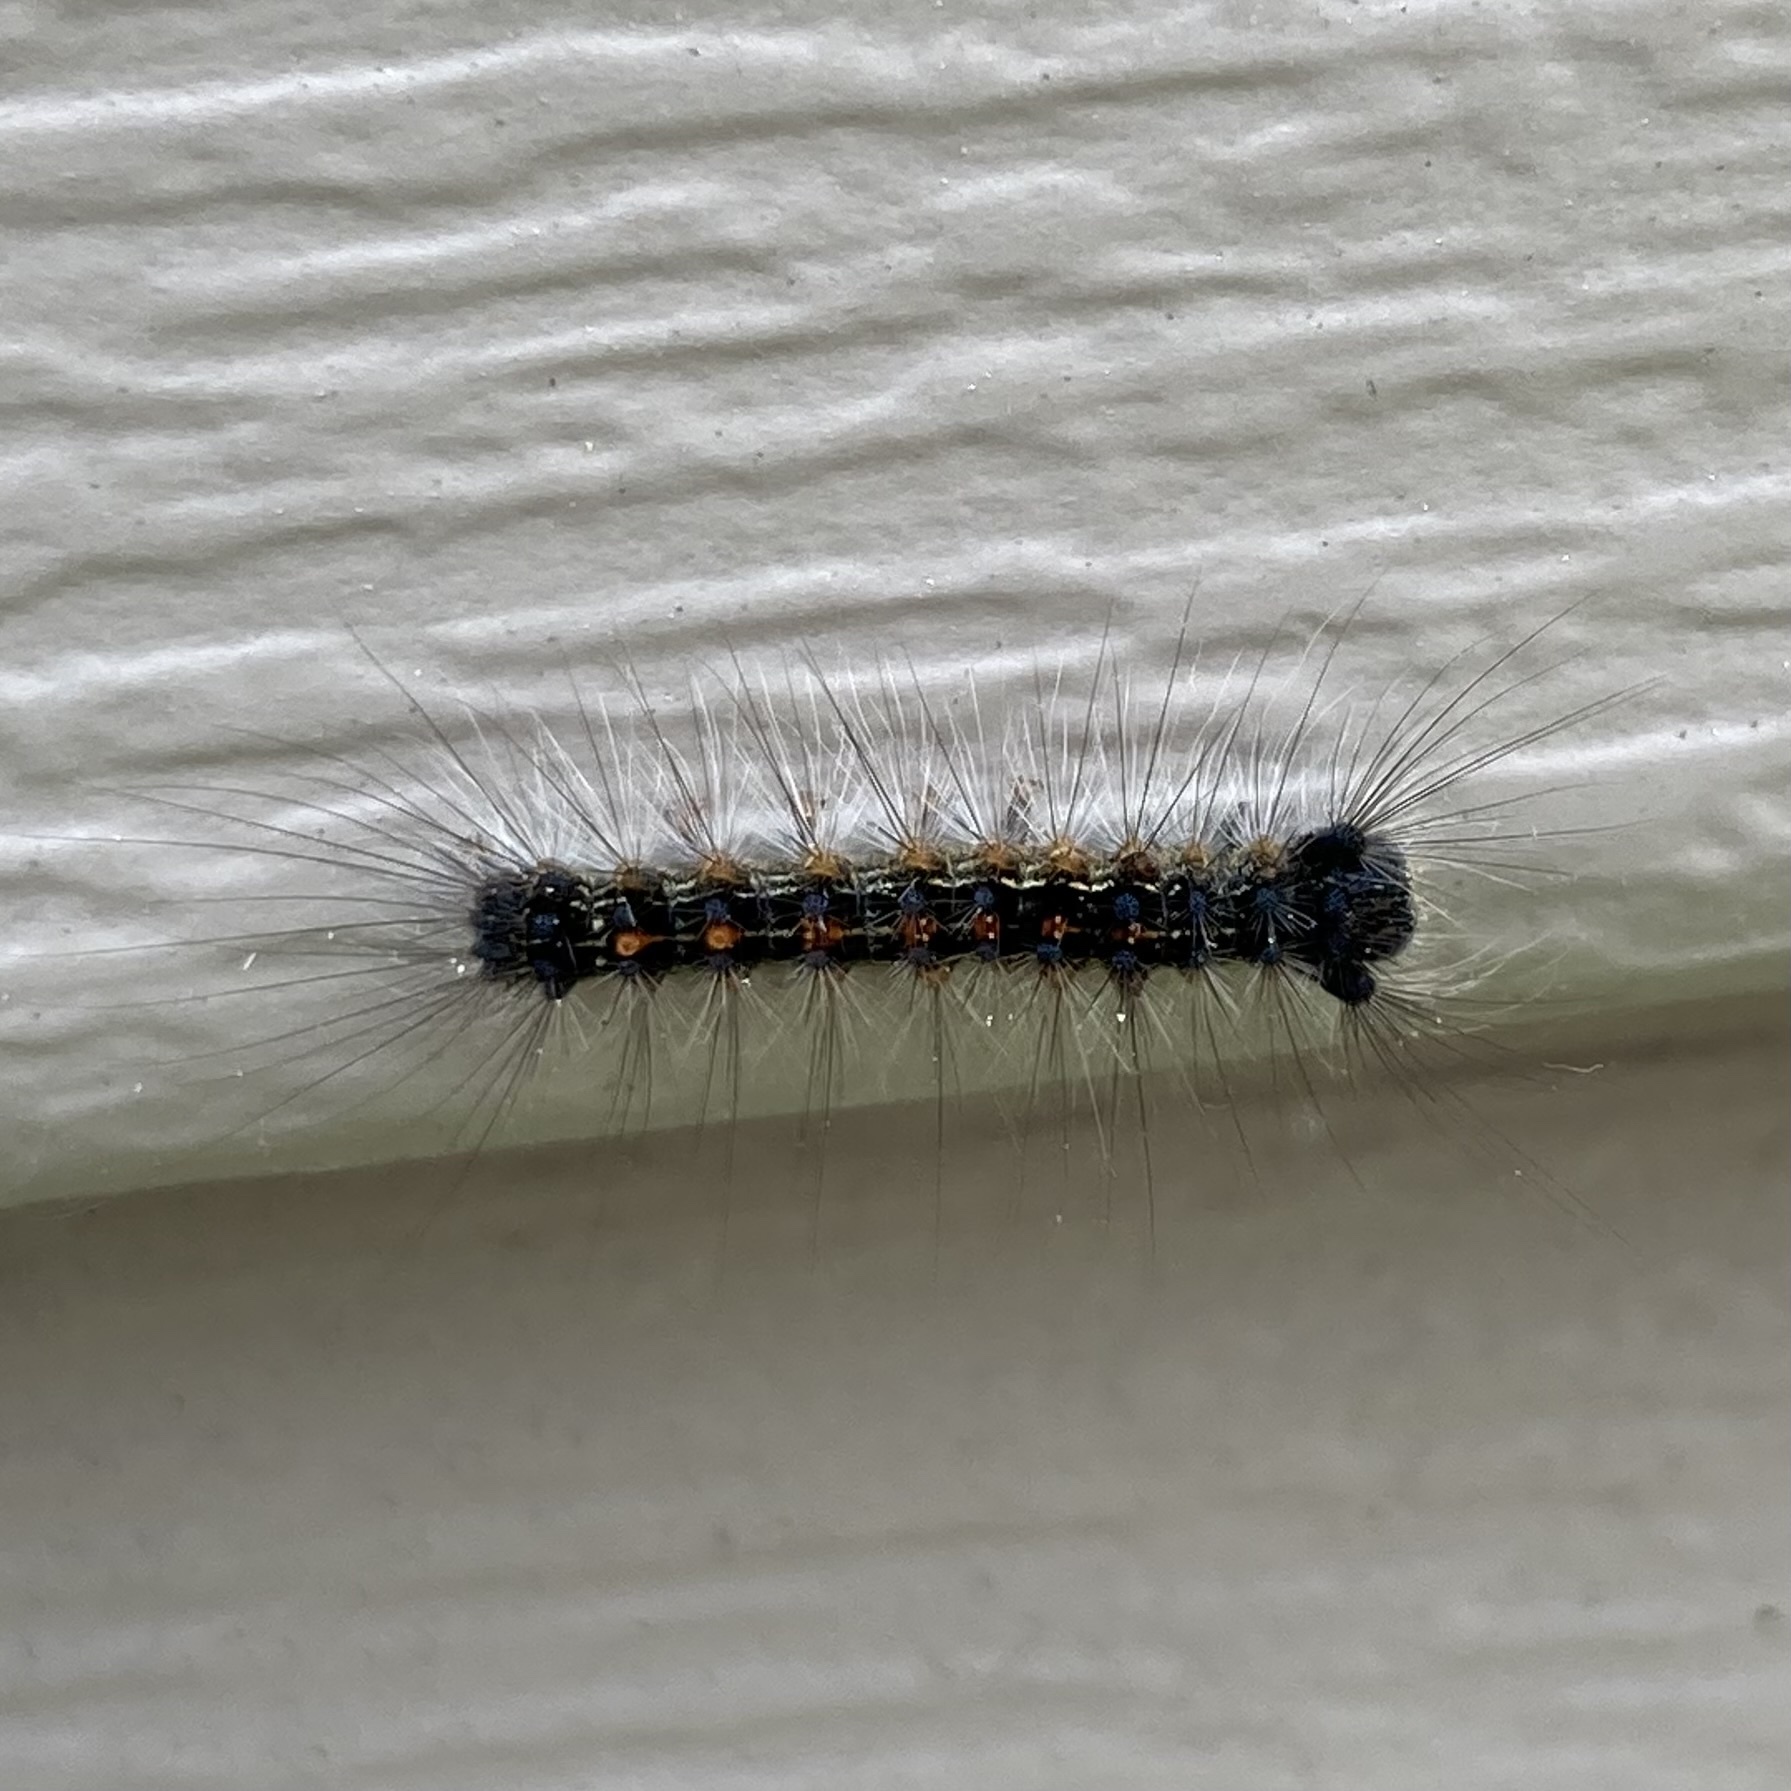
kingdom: Animalia
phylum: Arthropoda
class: Insecta
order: Lepidoptera
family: Erebidae
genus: Lymantria
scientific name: Lymantria dispar
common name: Gypsy moth
